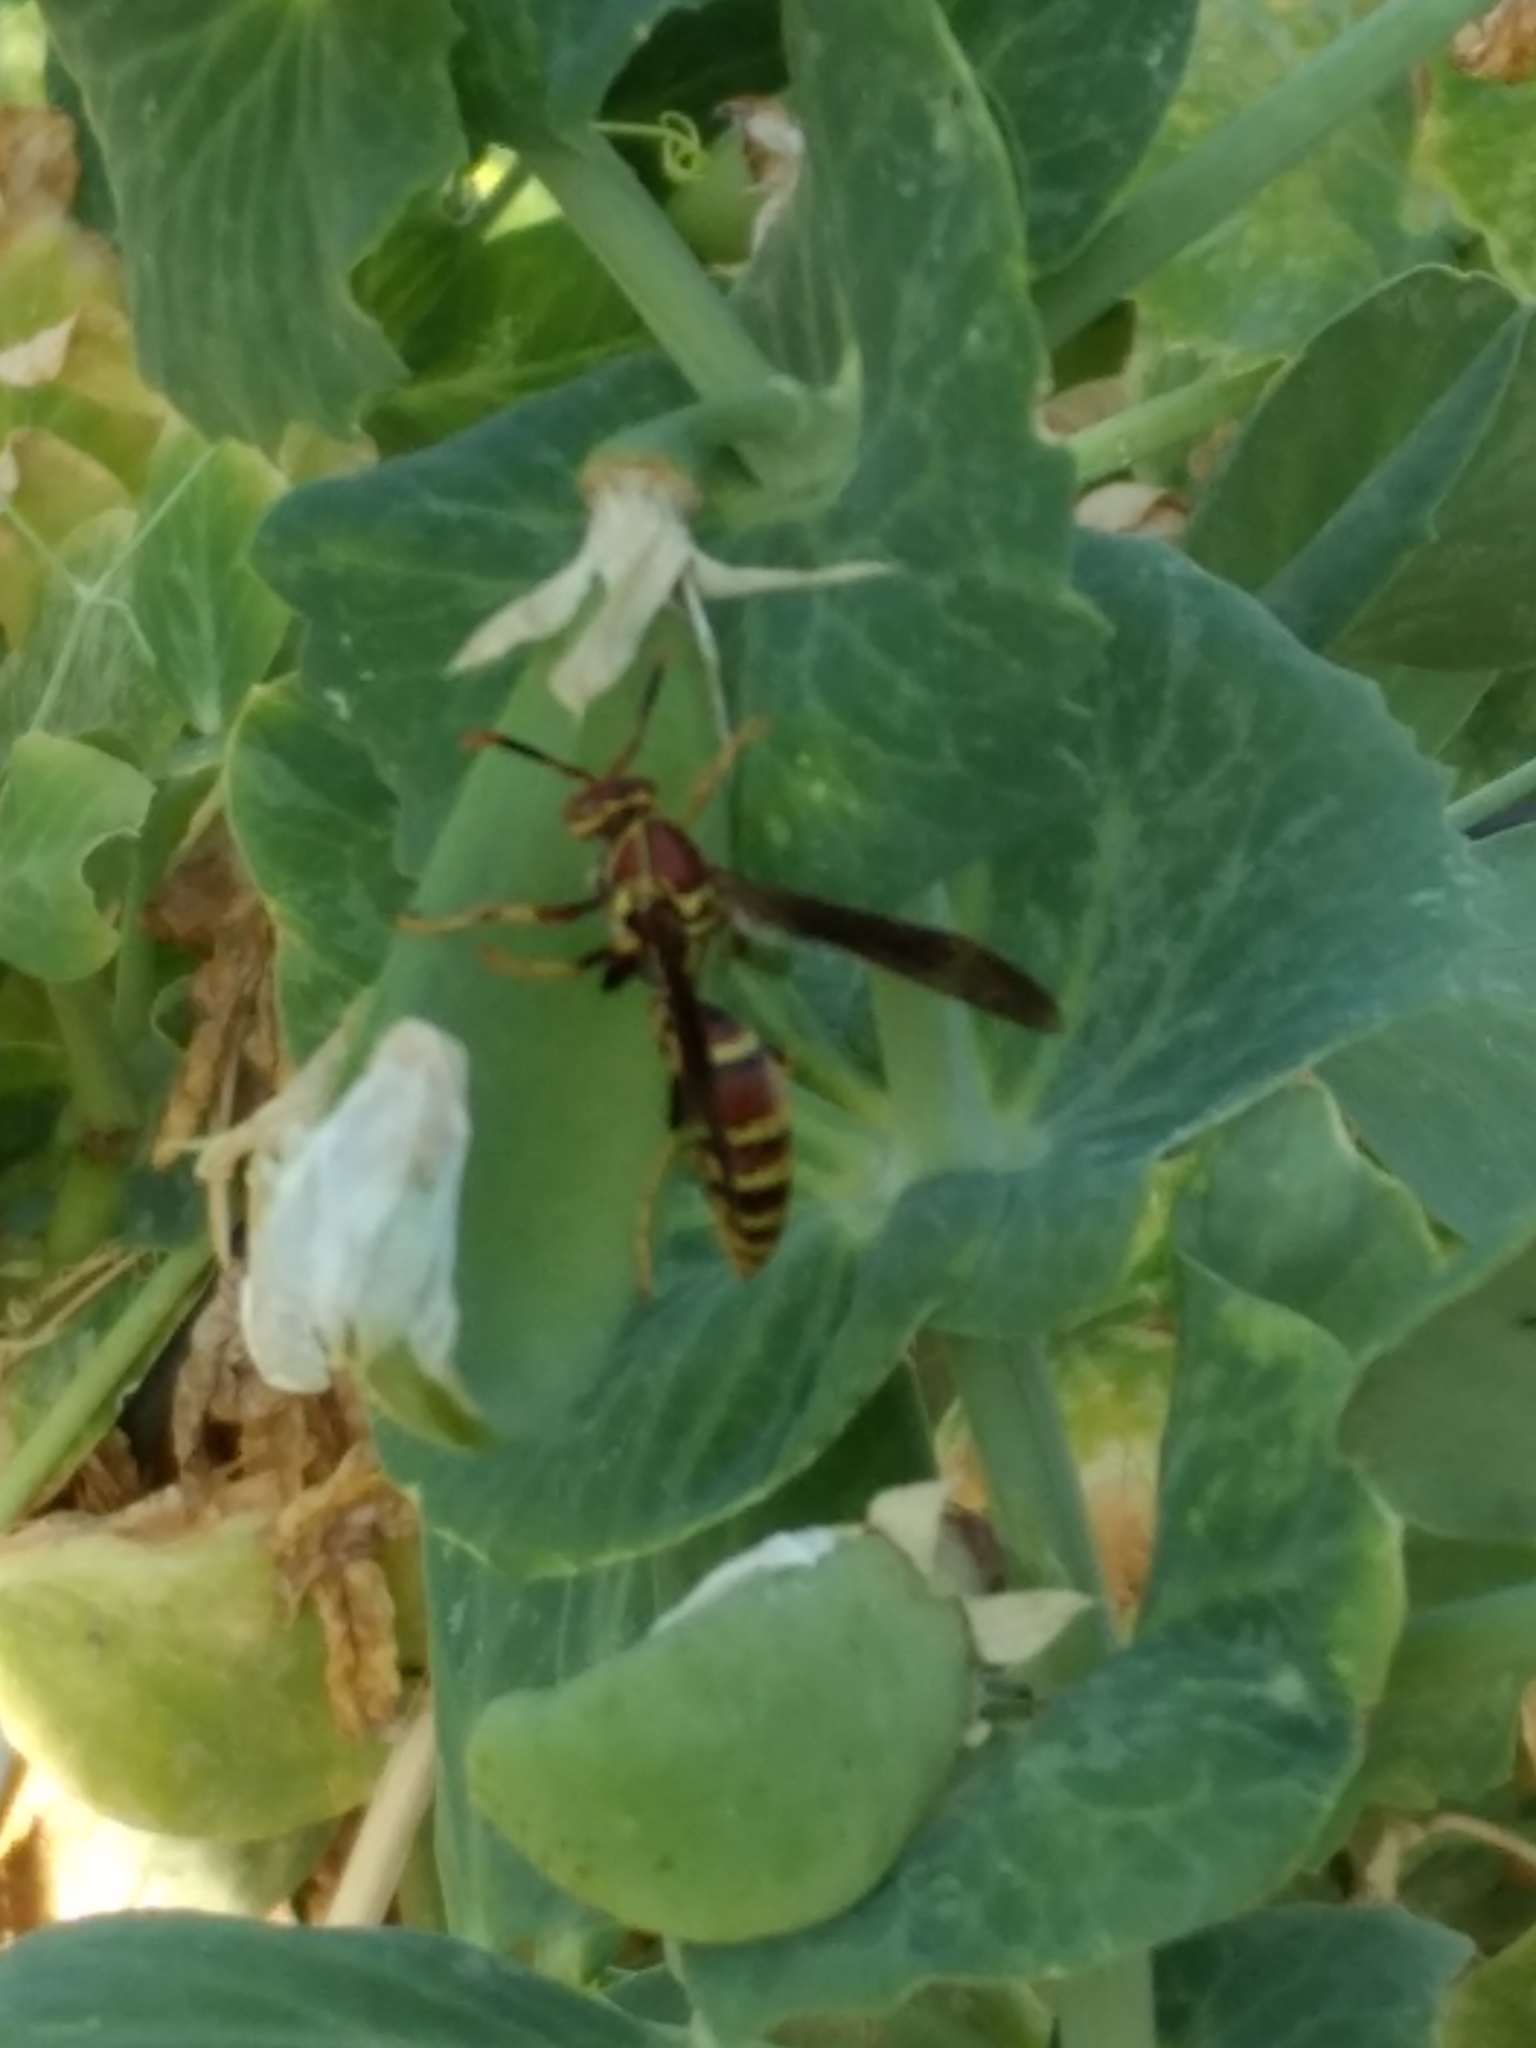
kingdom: Animalia
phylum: Arthropoda
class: Insecta
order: Hymenoptera
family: Eumenidae
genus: Polistes
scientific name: Polistes exclamans
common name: Paper wasp
